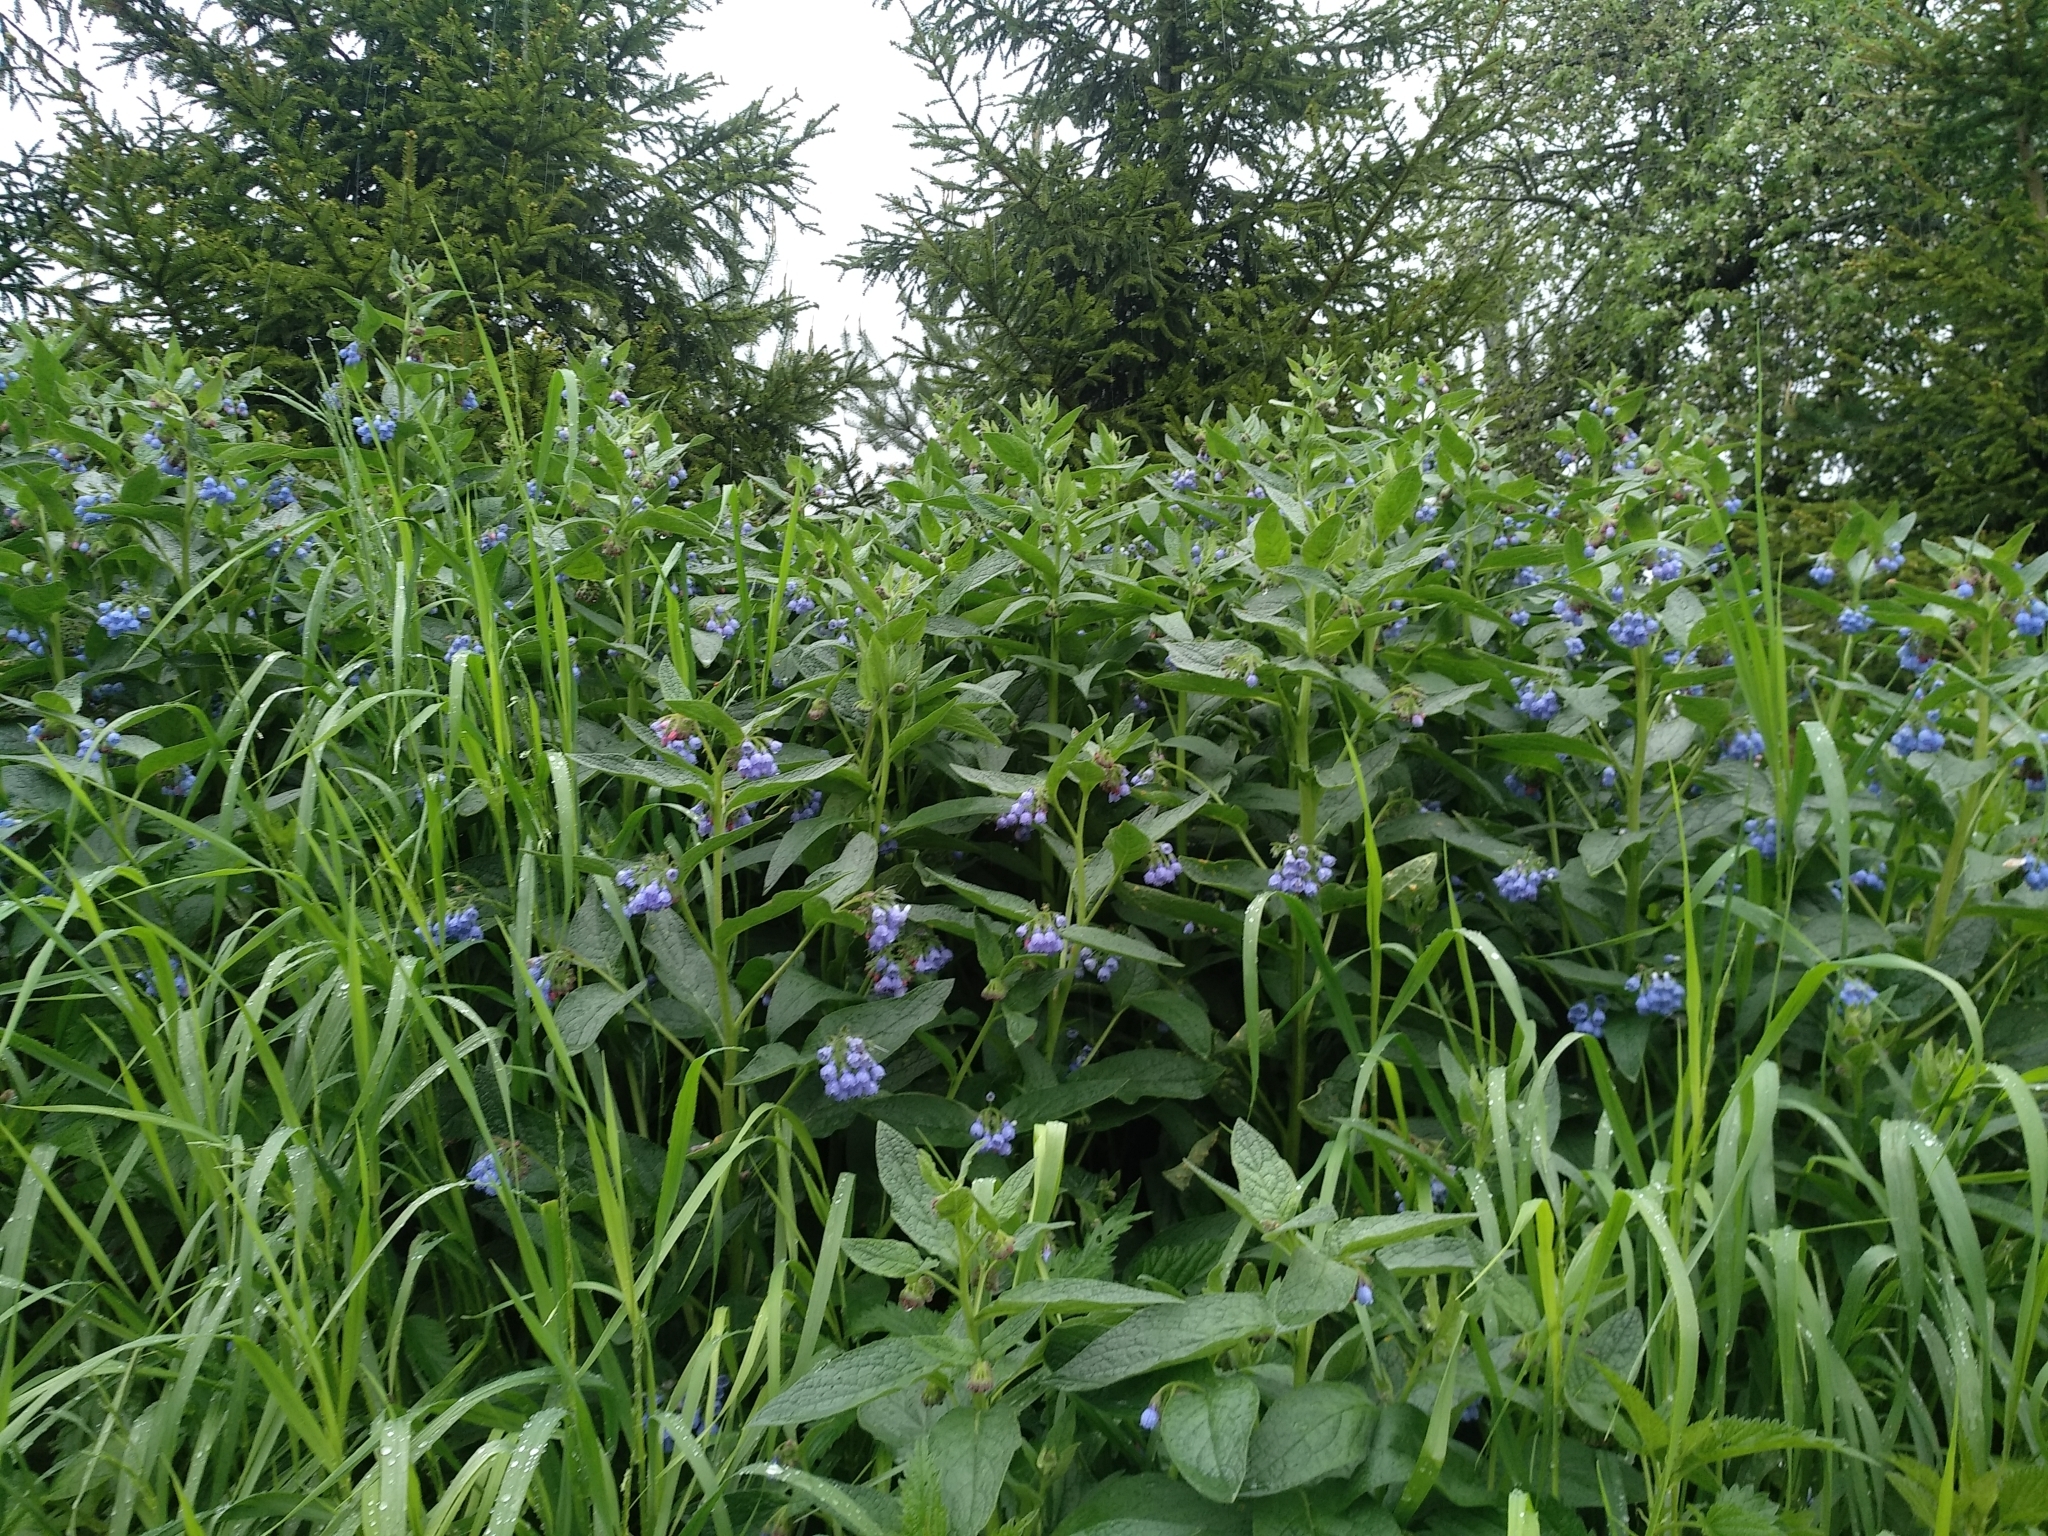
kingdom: Plantae
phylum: Tracheophyta
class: Magnoliopsida
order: Boraginales
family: Boraginaceae
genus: Symphytum
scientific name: Symphytum caucasicum
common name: Caucasian comfrey
